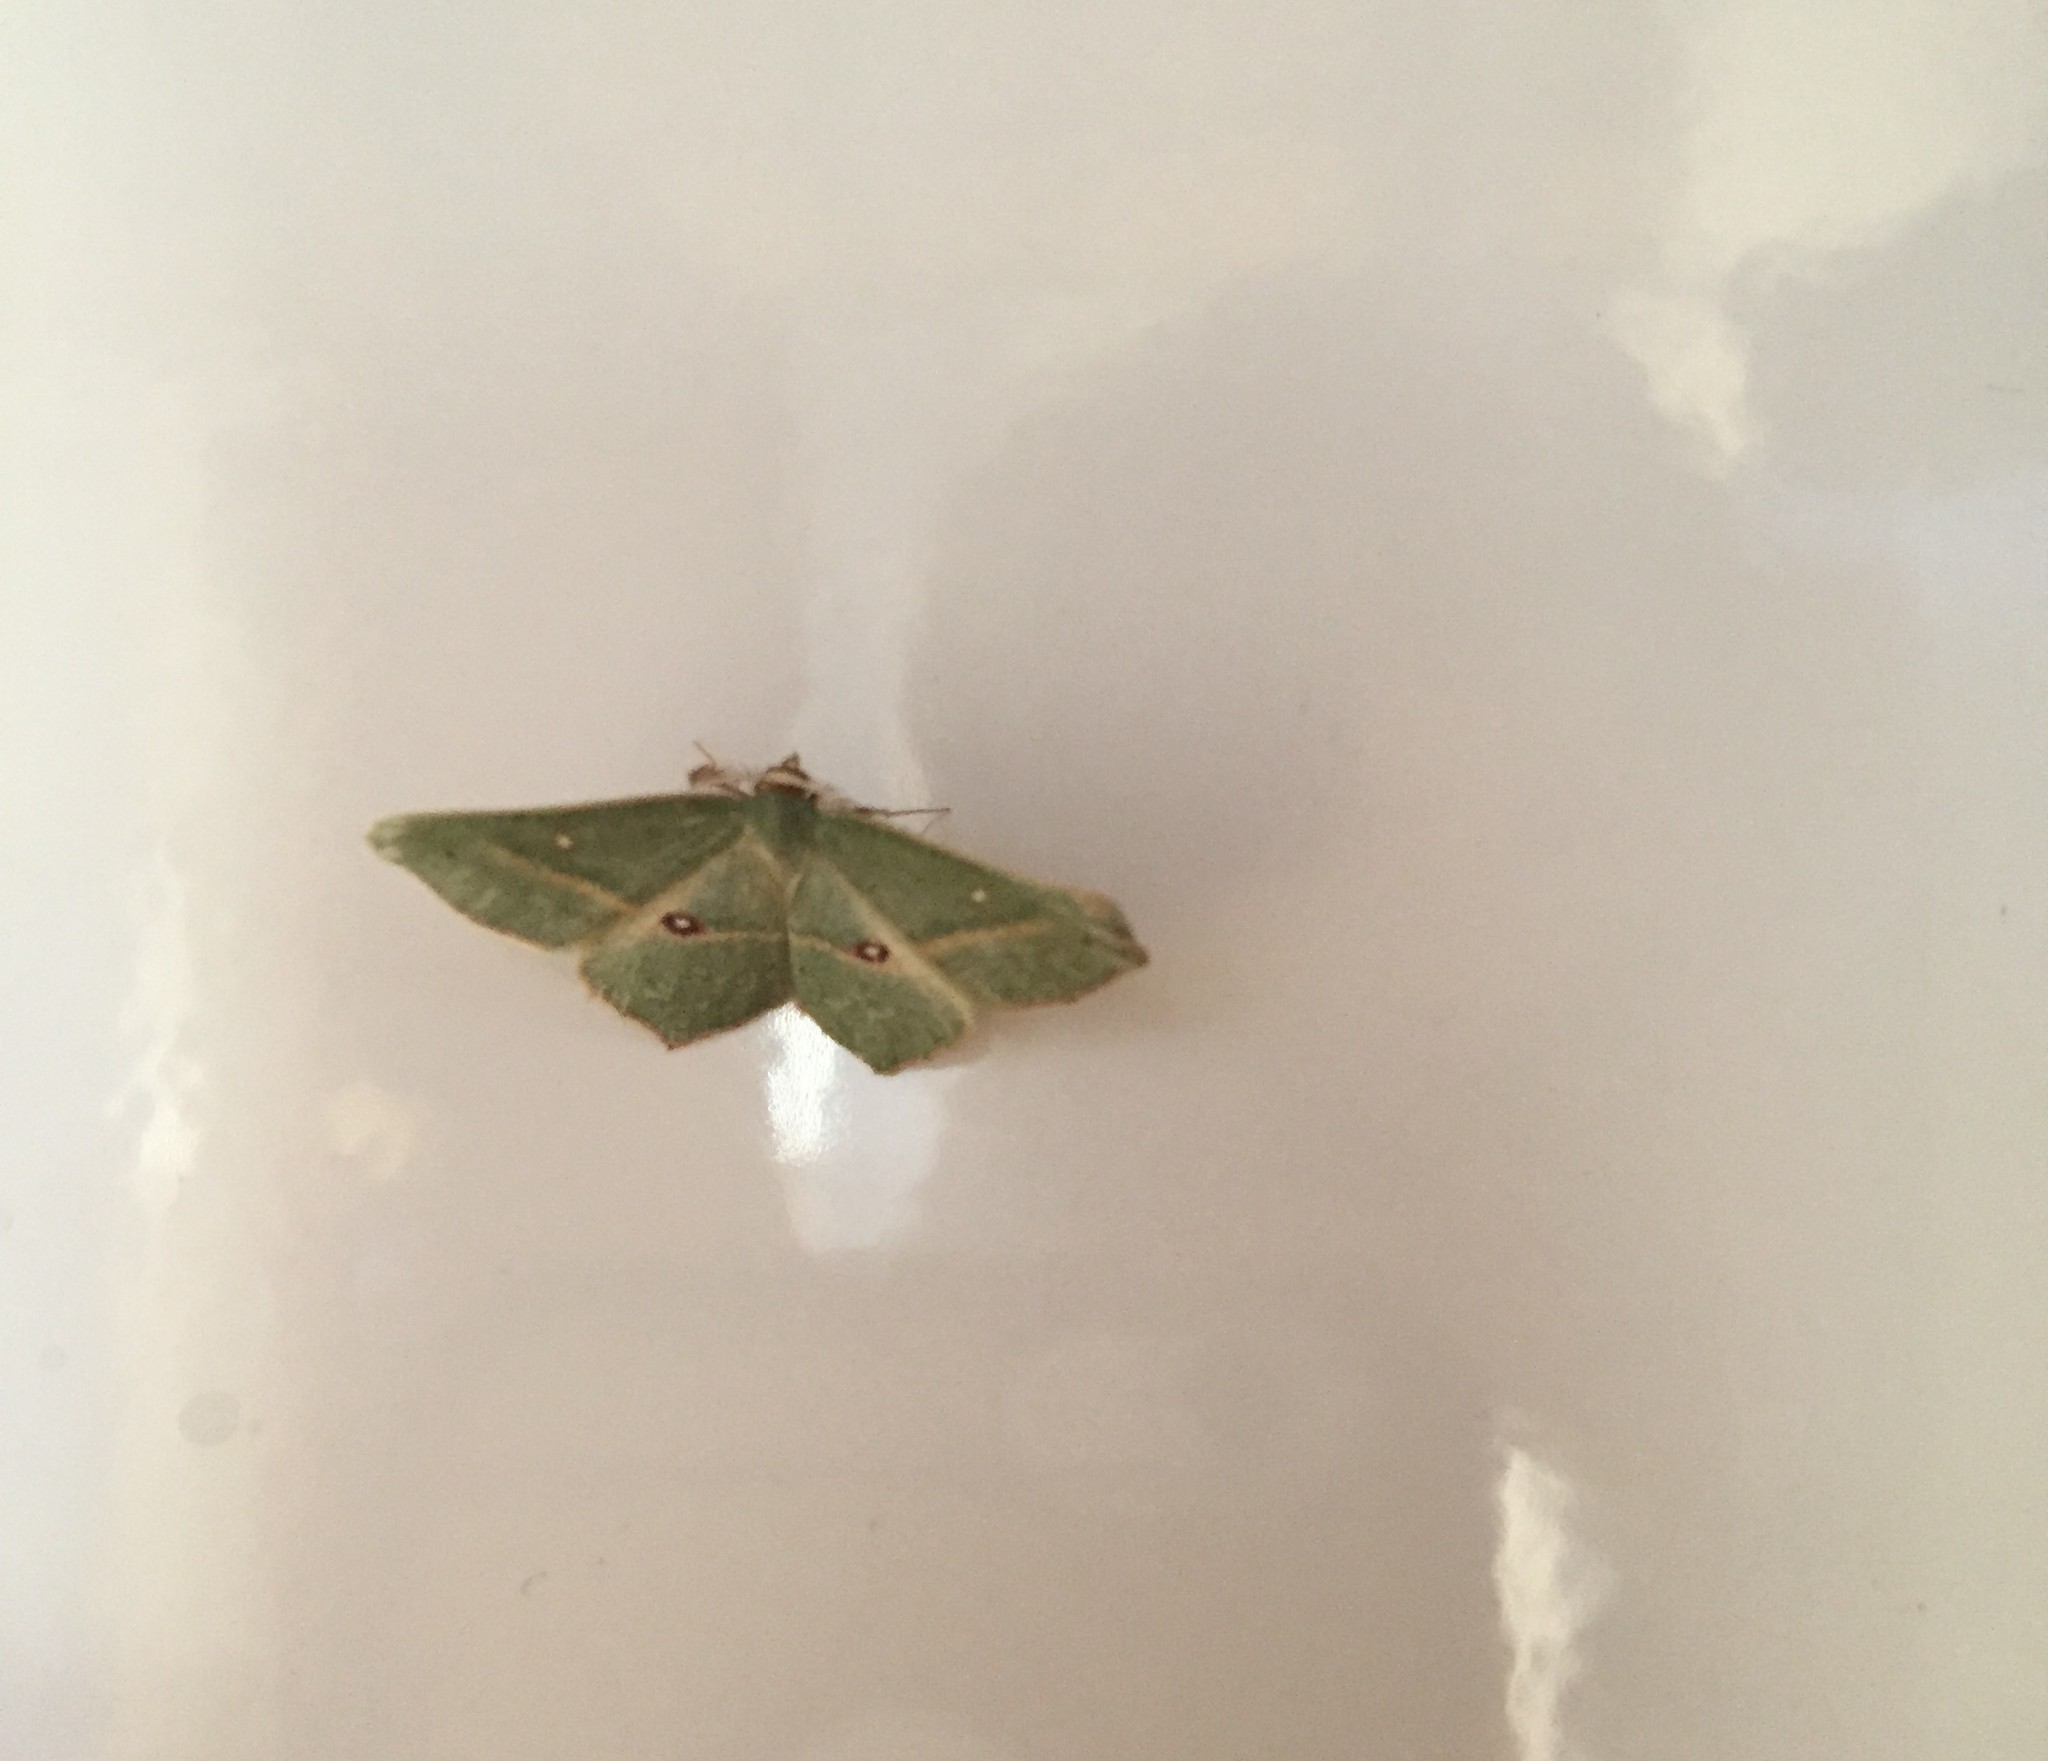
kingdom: Animalia
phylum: Arthropoda
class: Insecta
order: Lepidoptera
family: Geometridae
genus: Traminda
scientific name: Traminda ocellata
